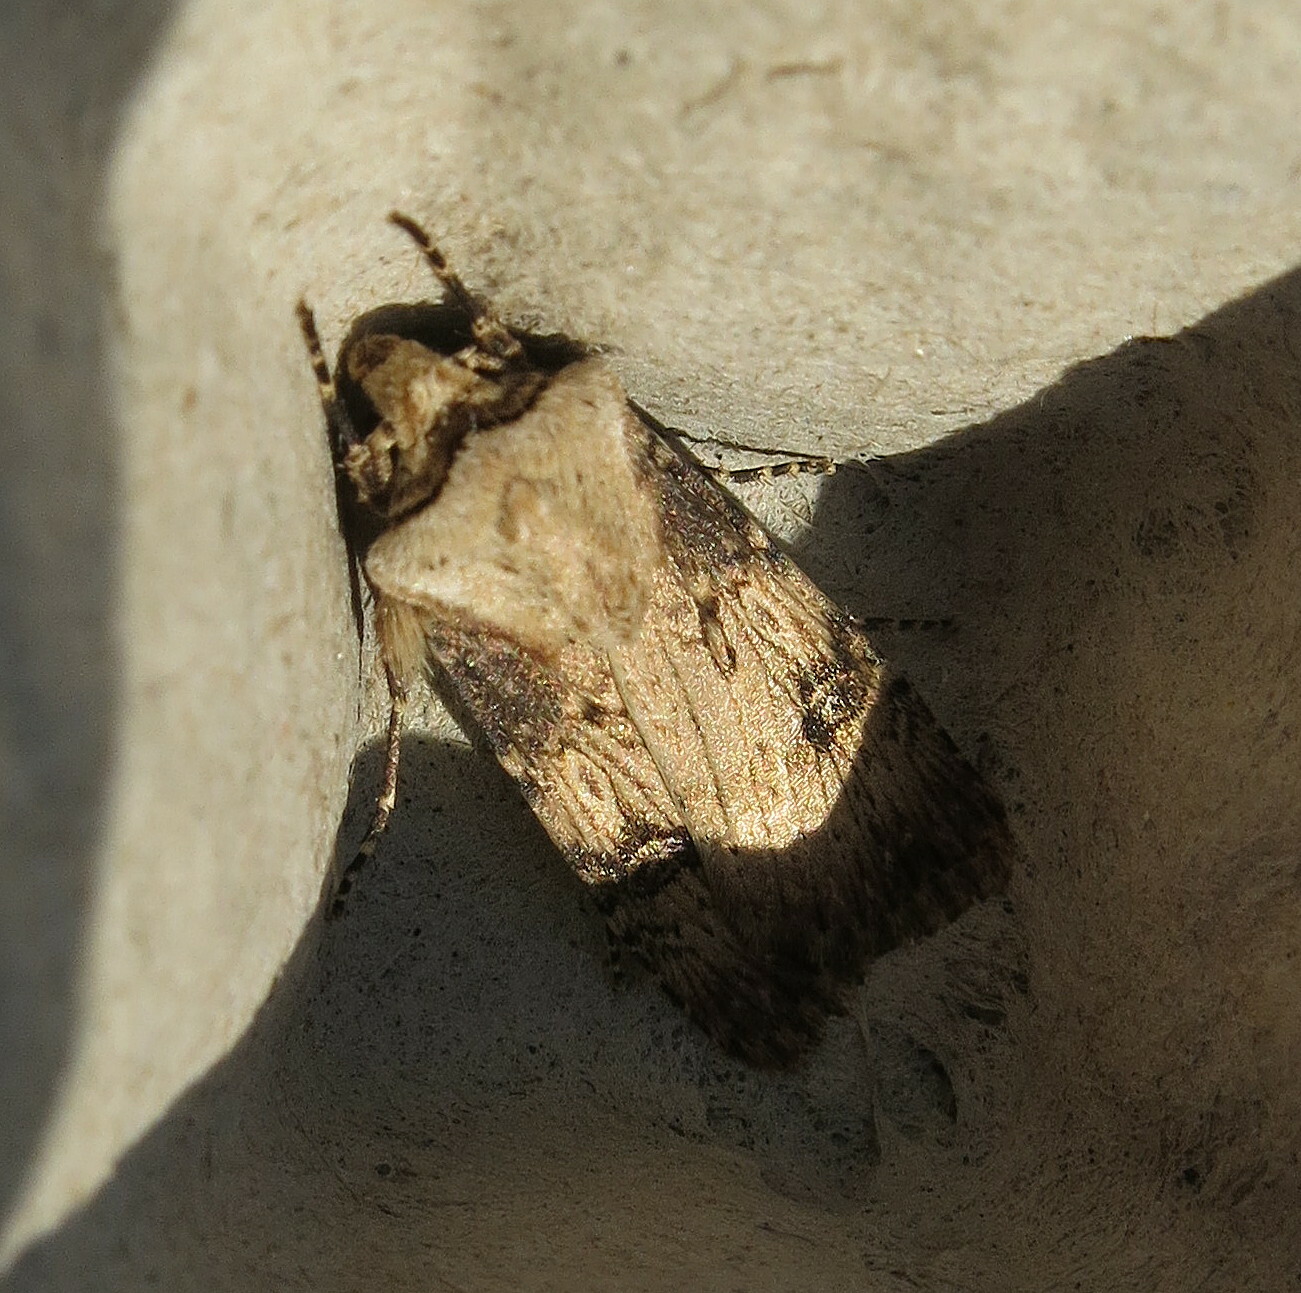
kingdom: Animalia
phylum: Arthropoda
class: Insecta
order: Lepidoptera
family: Noctuidae
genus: Agrotis
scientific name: Agrotis puta
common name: Shuttle-shaped dart
